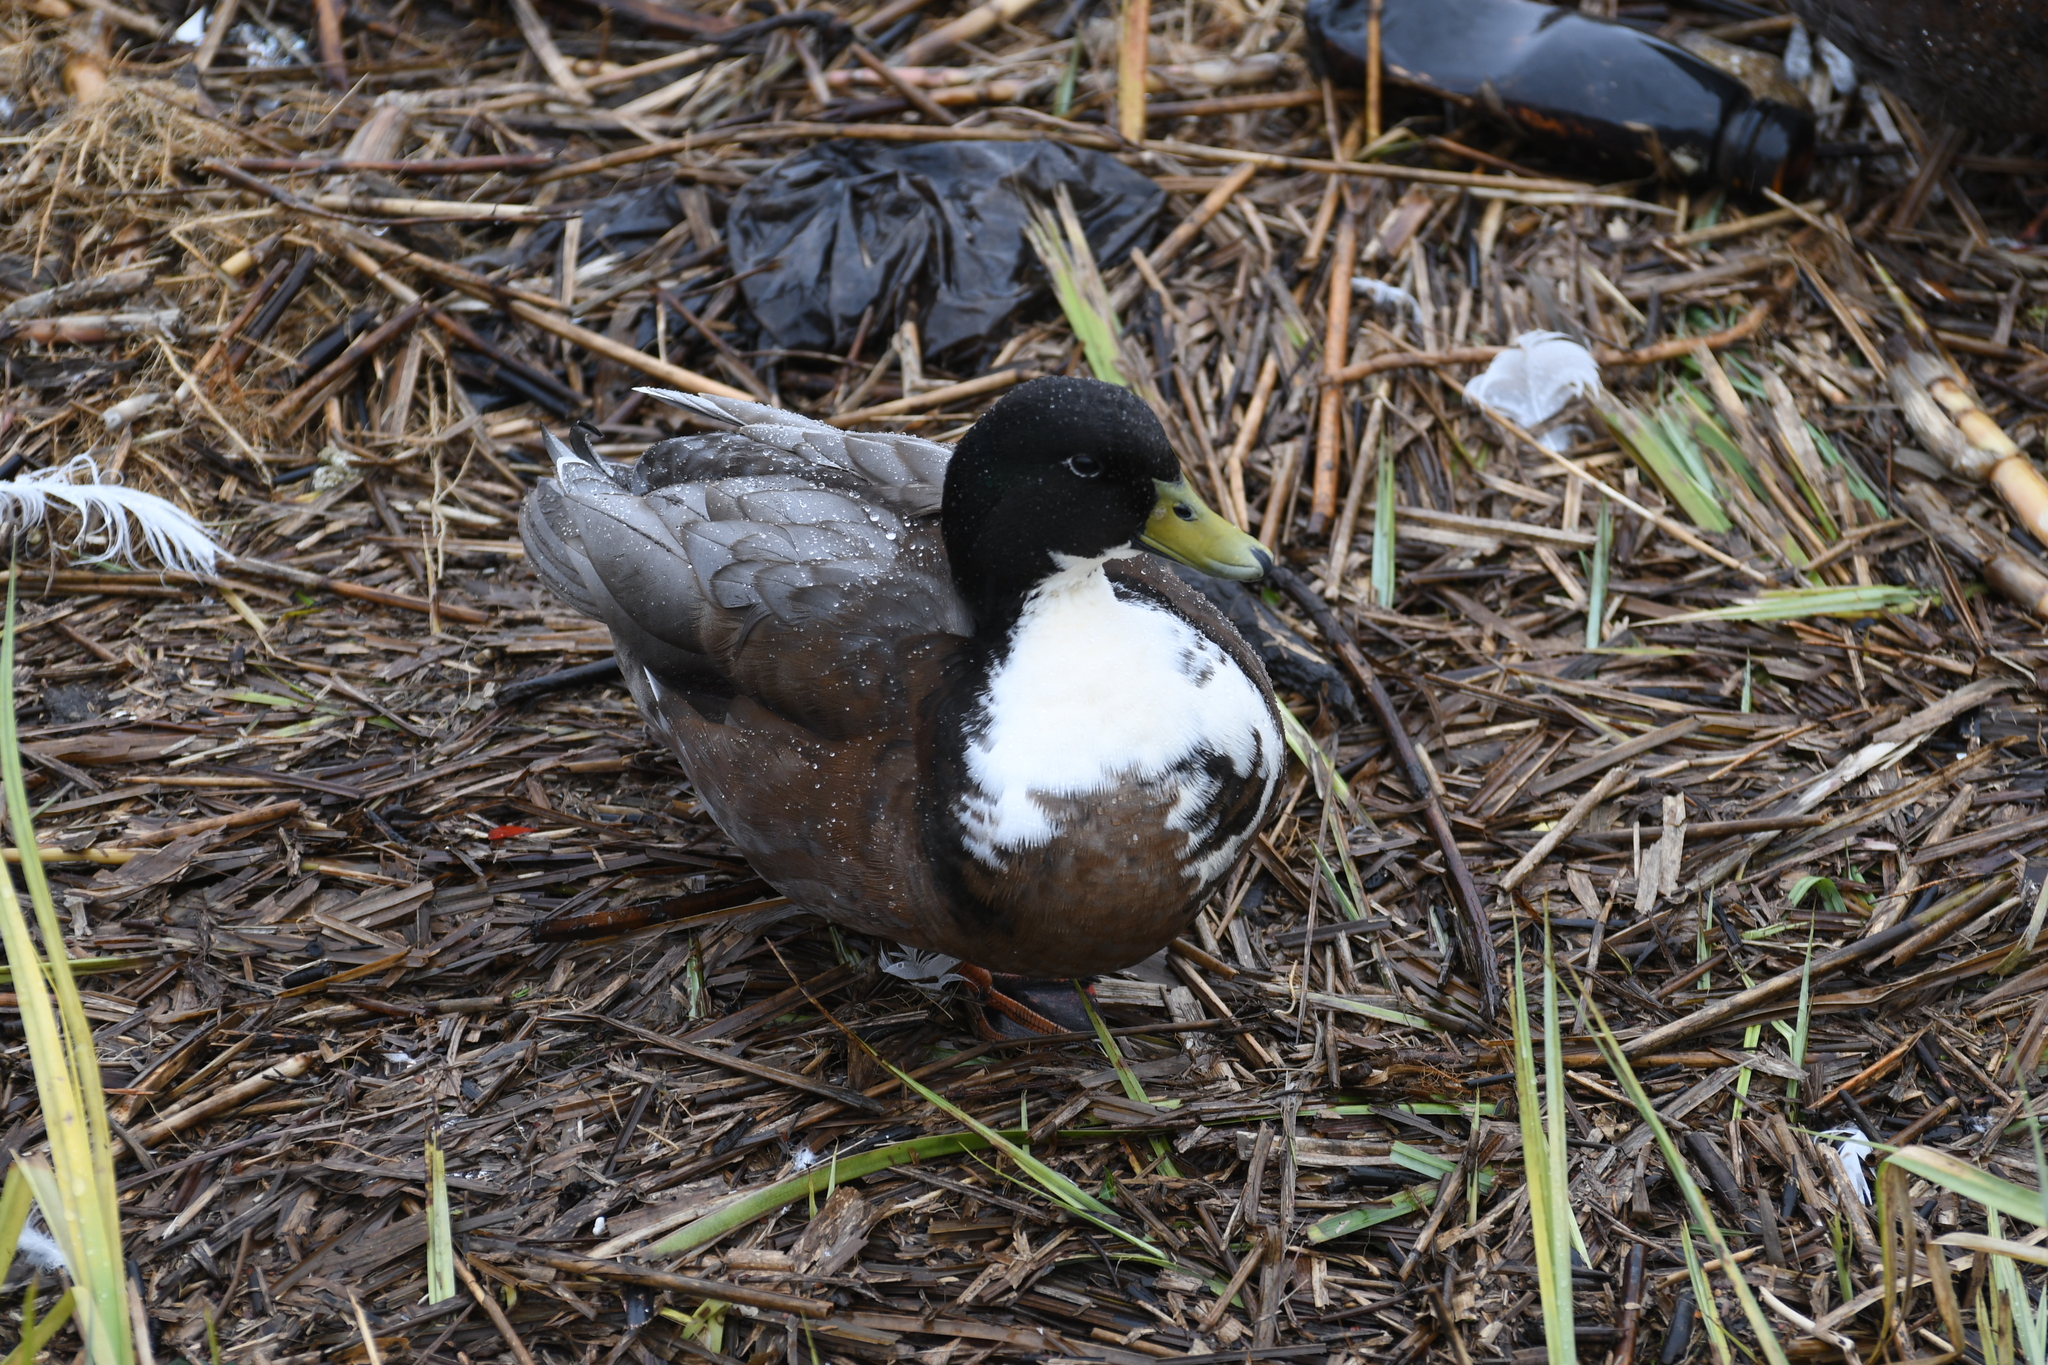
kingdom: Animalia
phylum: Chordata
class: Aves
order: Anseriformes
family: Anatidae
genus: Anas
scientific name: Anas platyrhynchos
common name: Mallard
